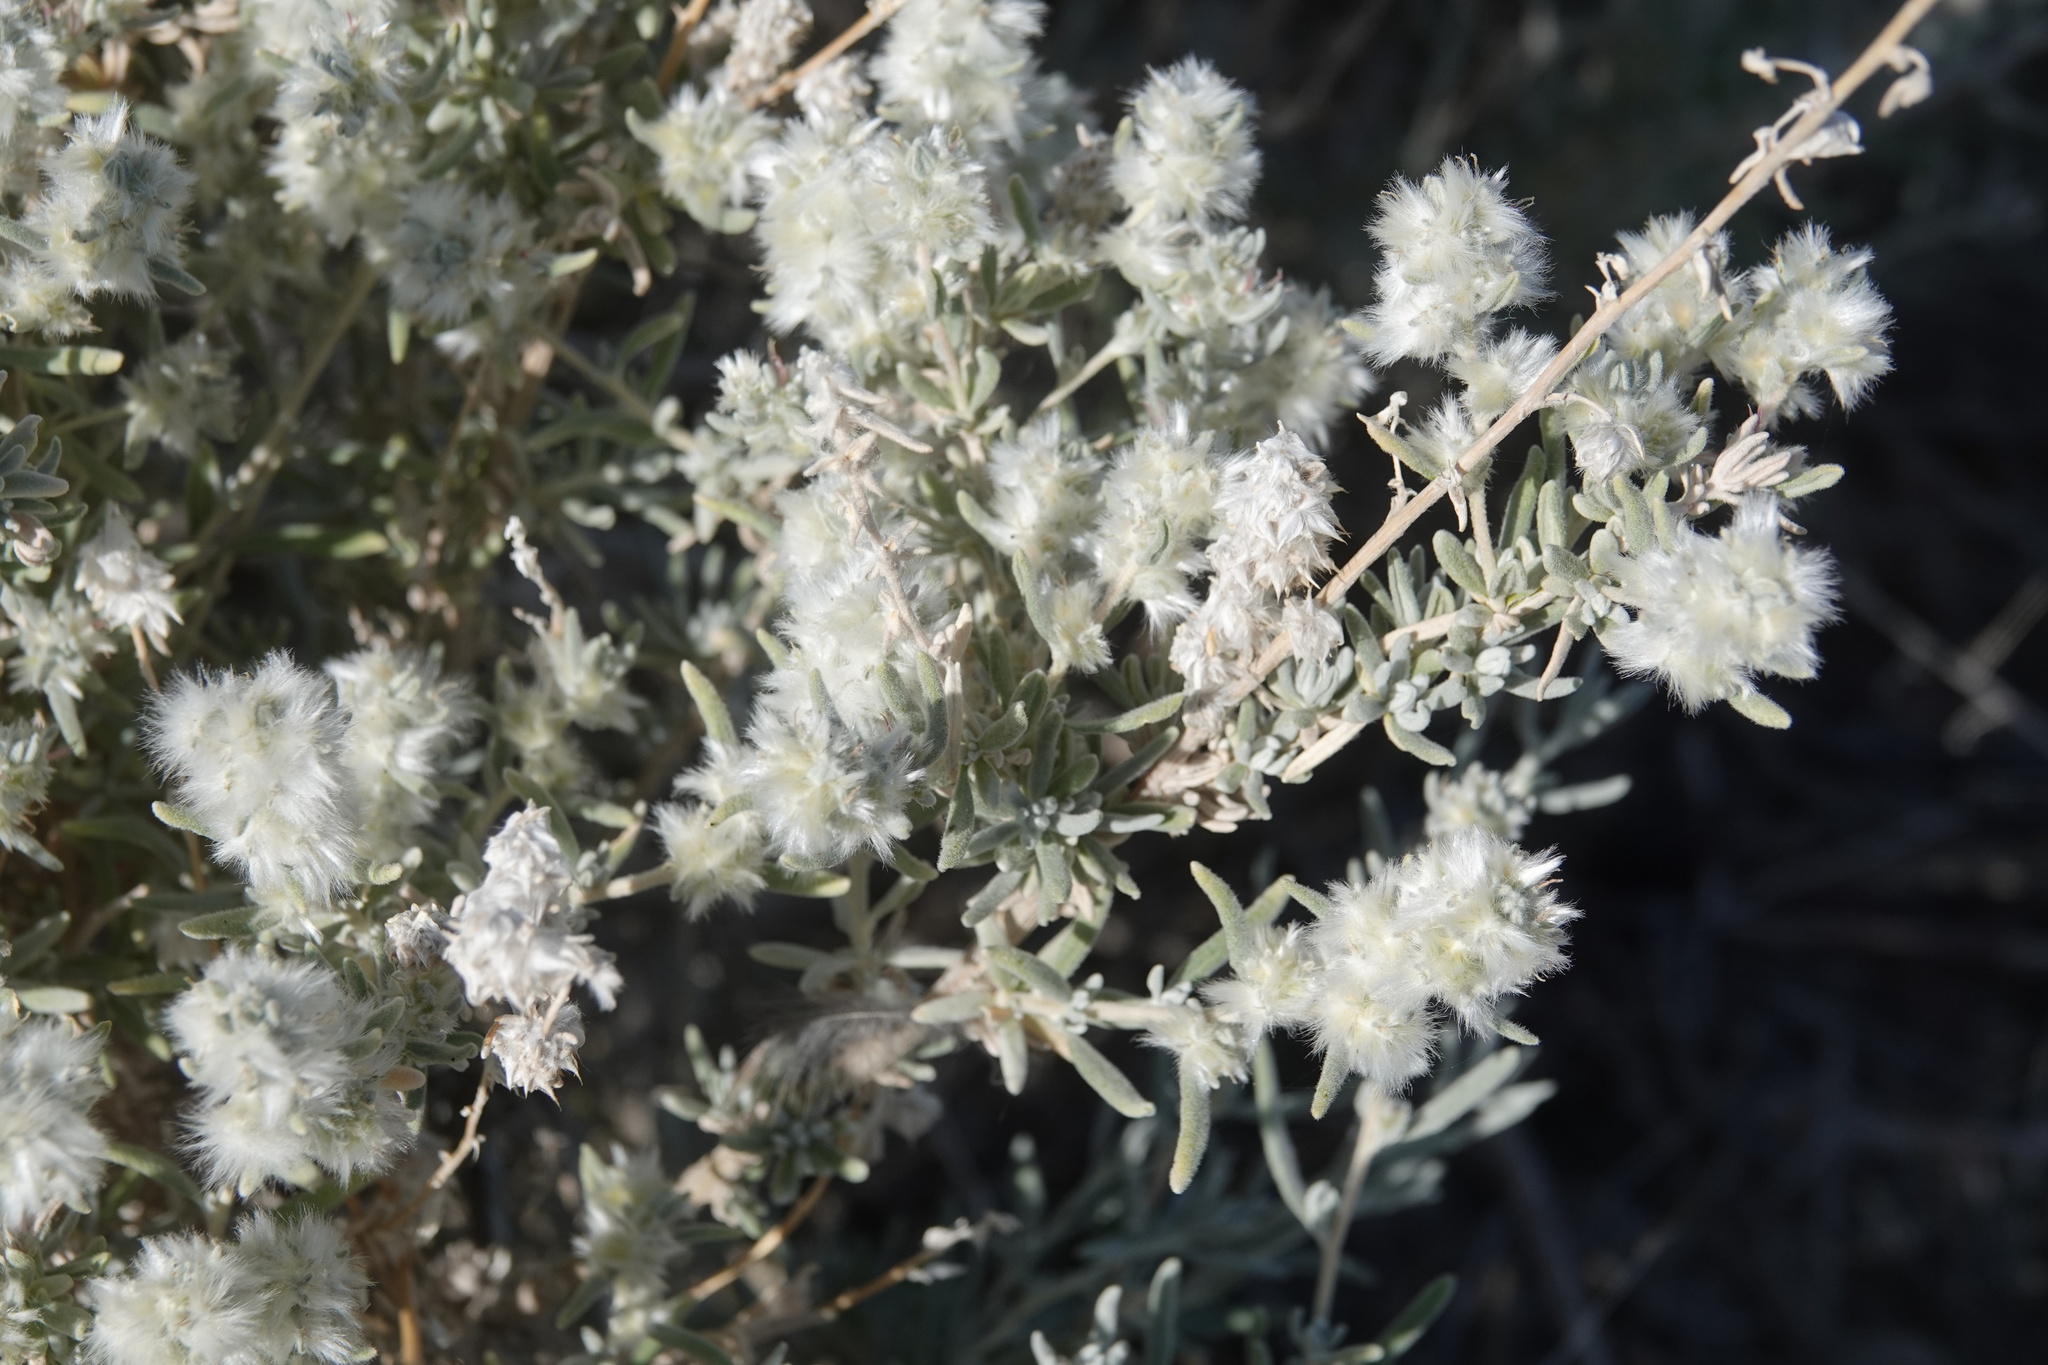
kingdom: Plantae
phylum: Tracheophyta
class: Magnoliopsida
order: Caryophyllales
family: Amaranthaceae
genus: Krascheninnikovia
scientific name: Krascheninnikovia lanata
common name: Winterfat
